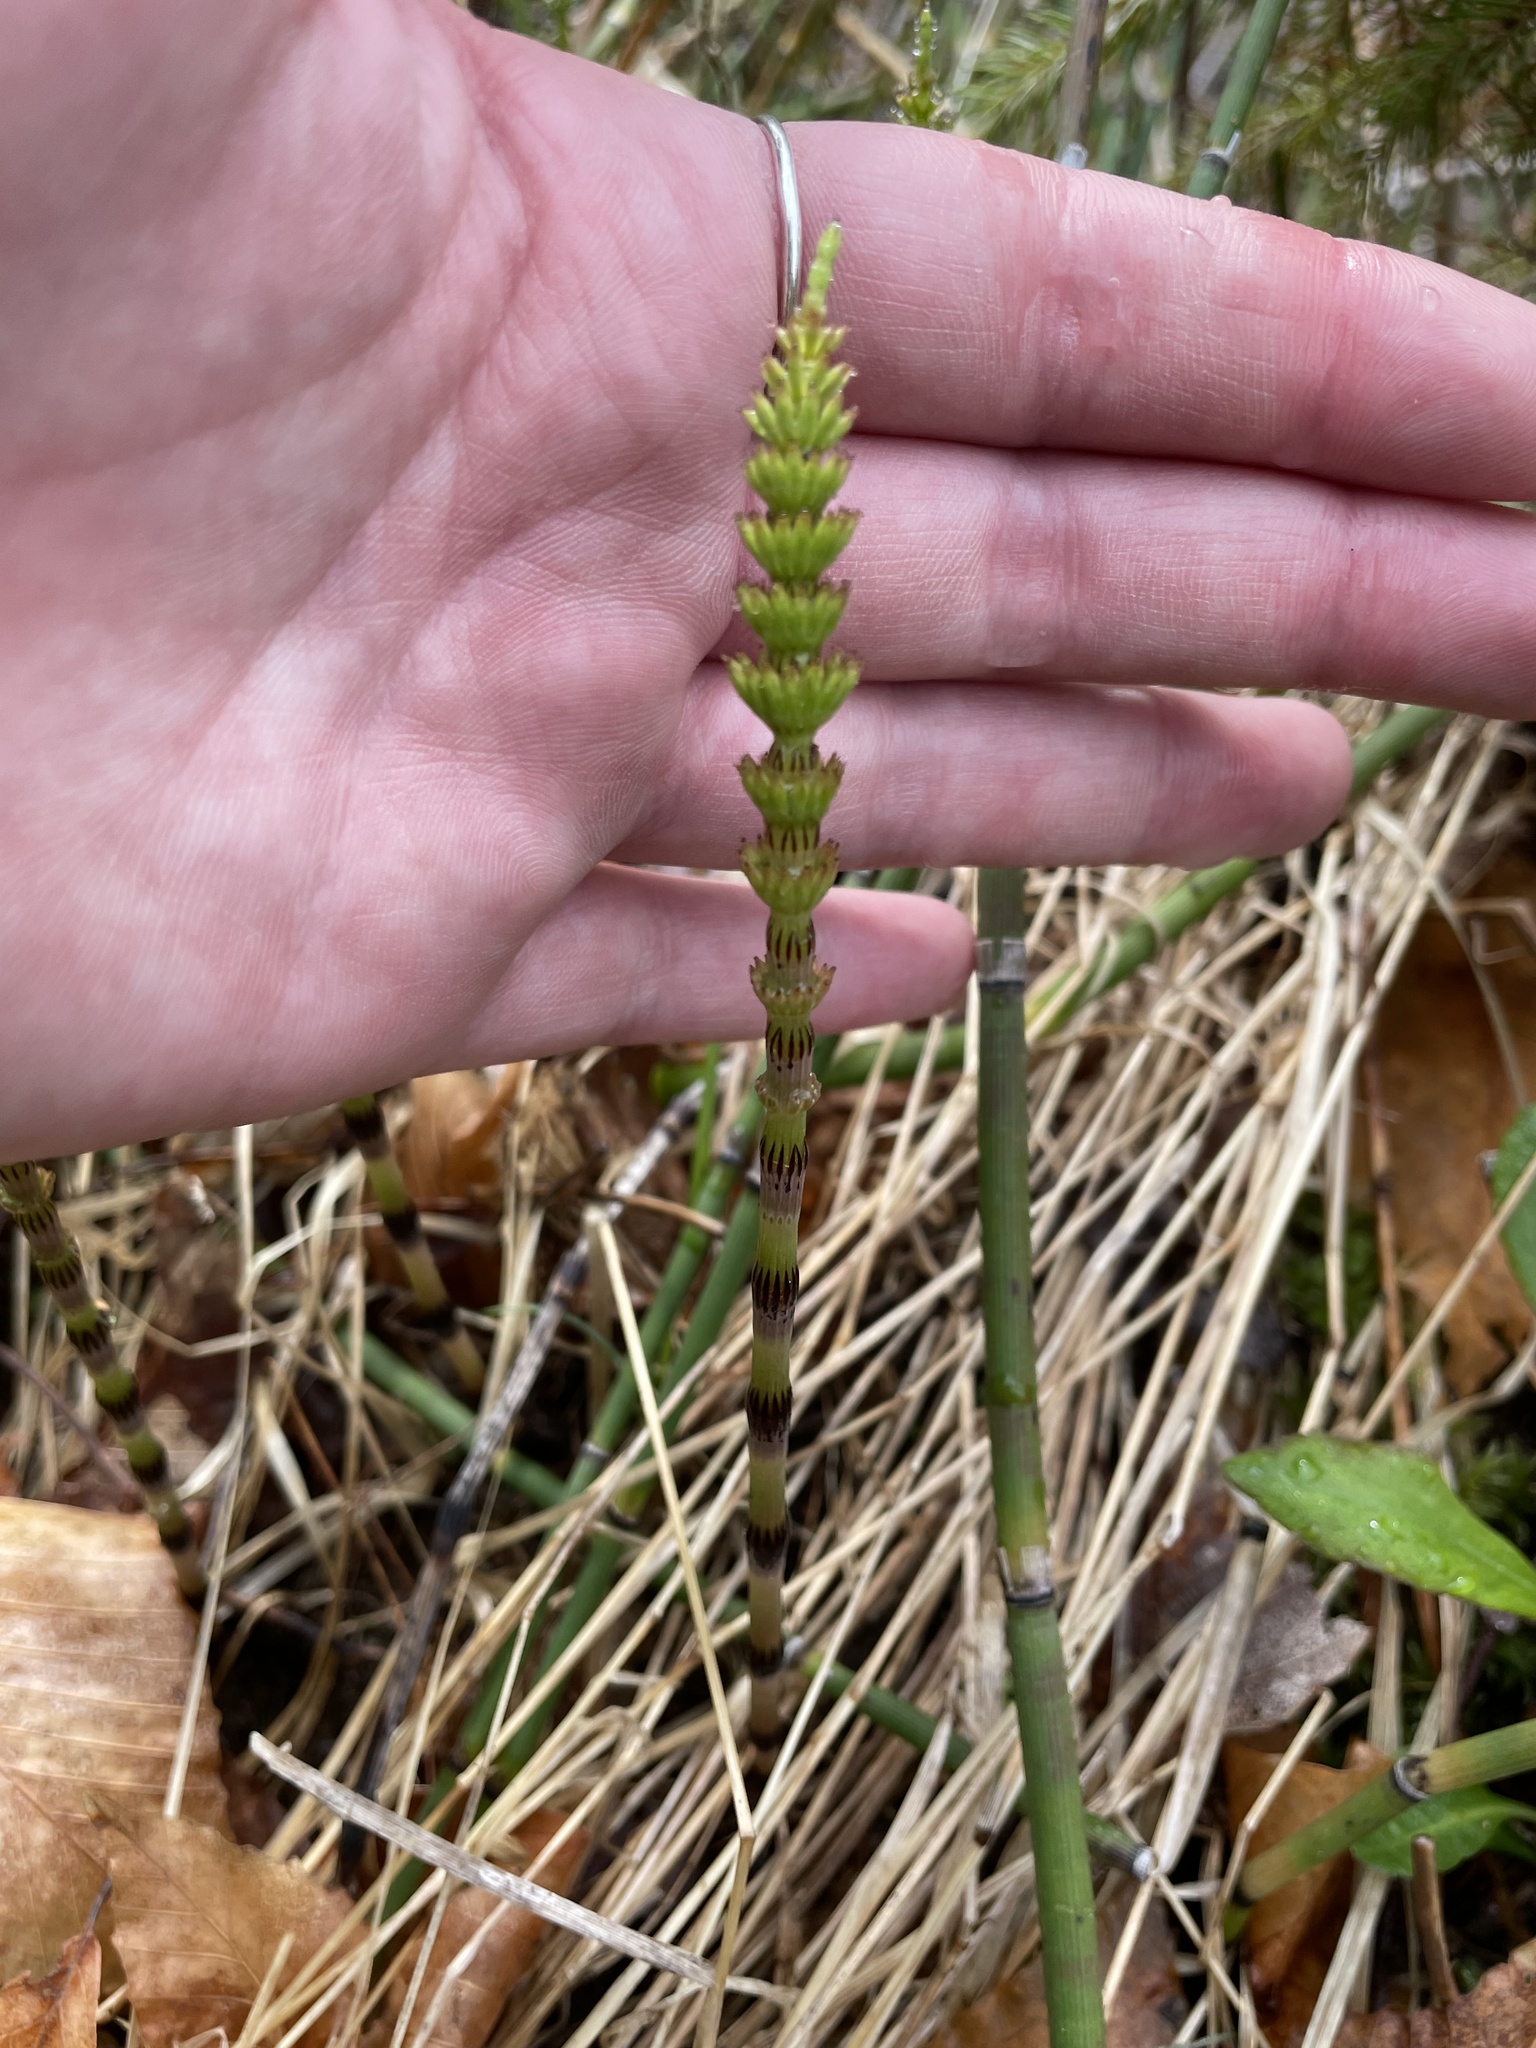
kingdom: Plantae
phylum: Tracheophyta
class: Polypodiopsida
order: Equisetales
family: Equisetaceae
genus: Equisetum
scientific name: Equisetum arvense
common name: Field horsetail
